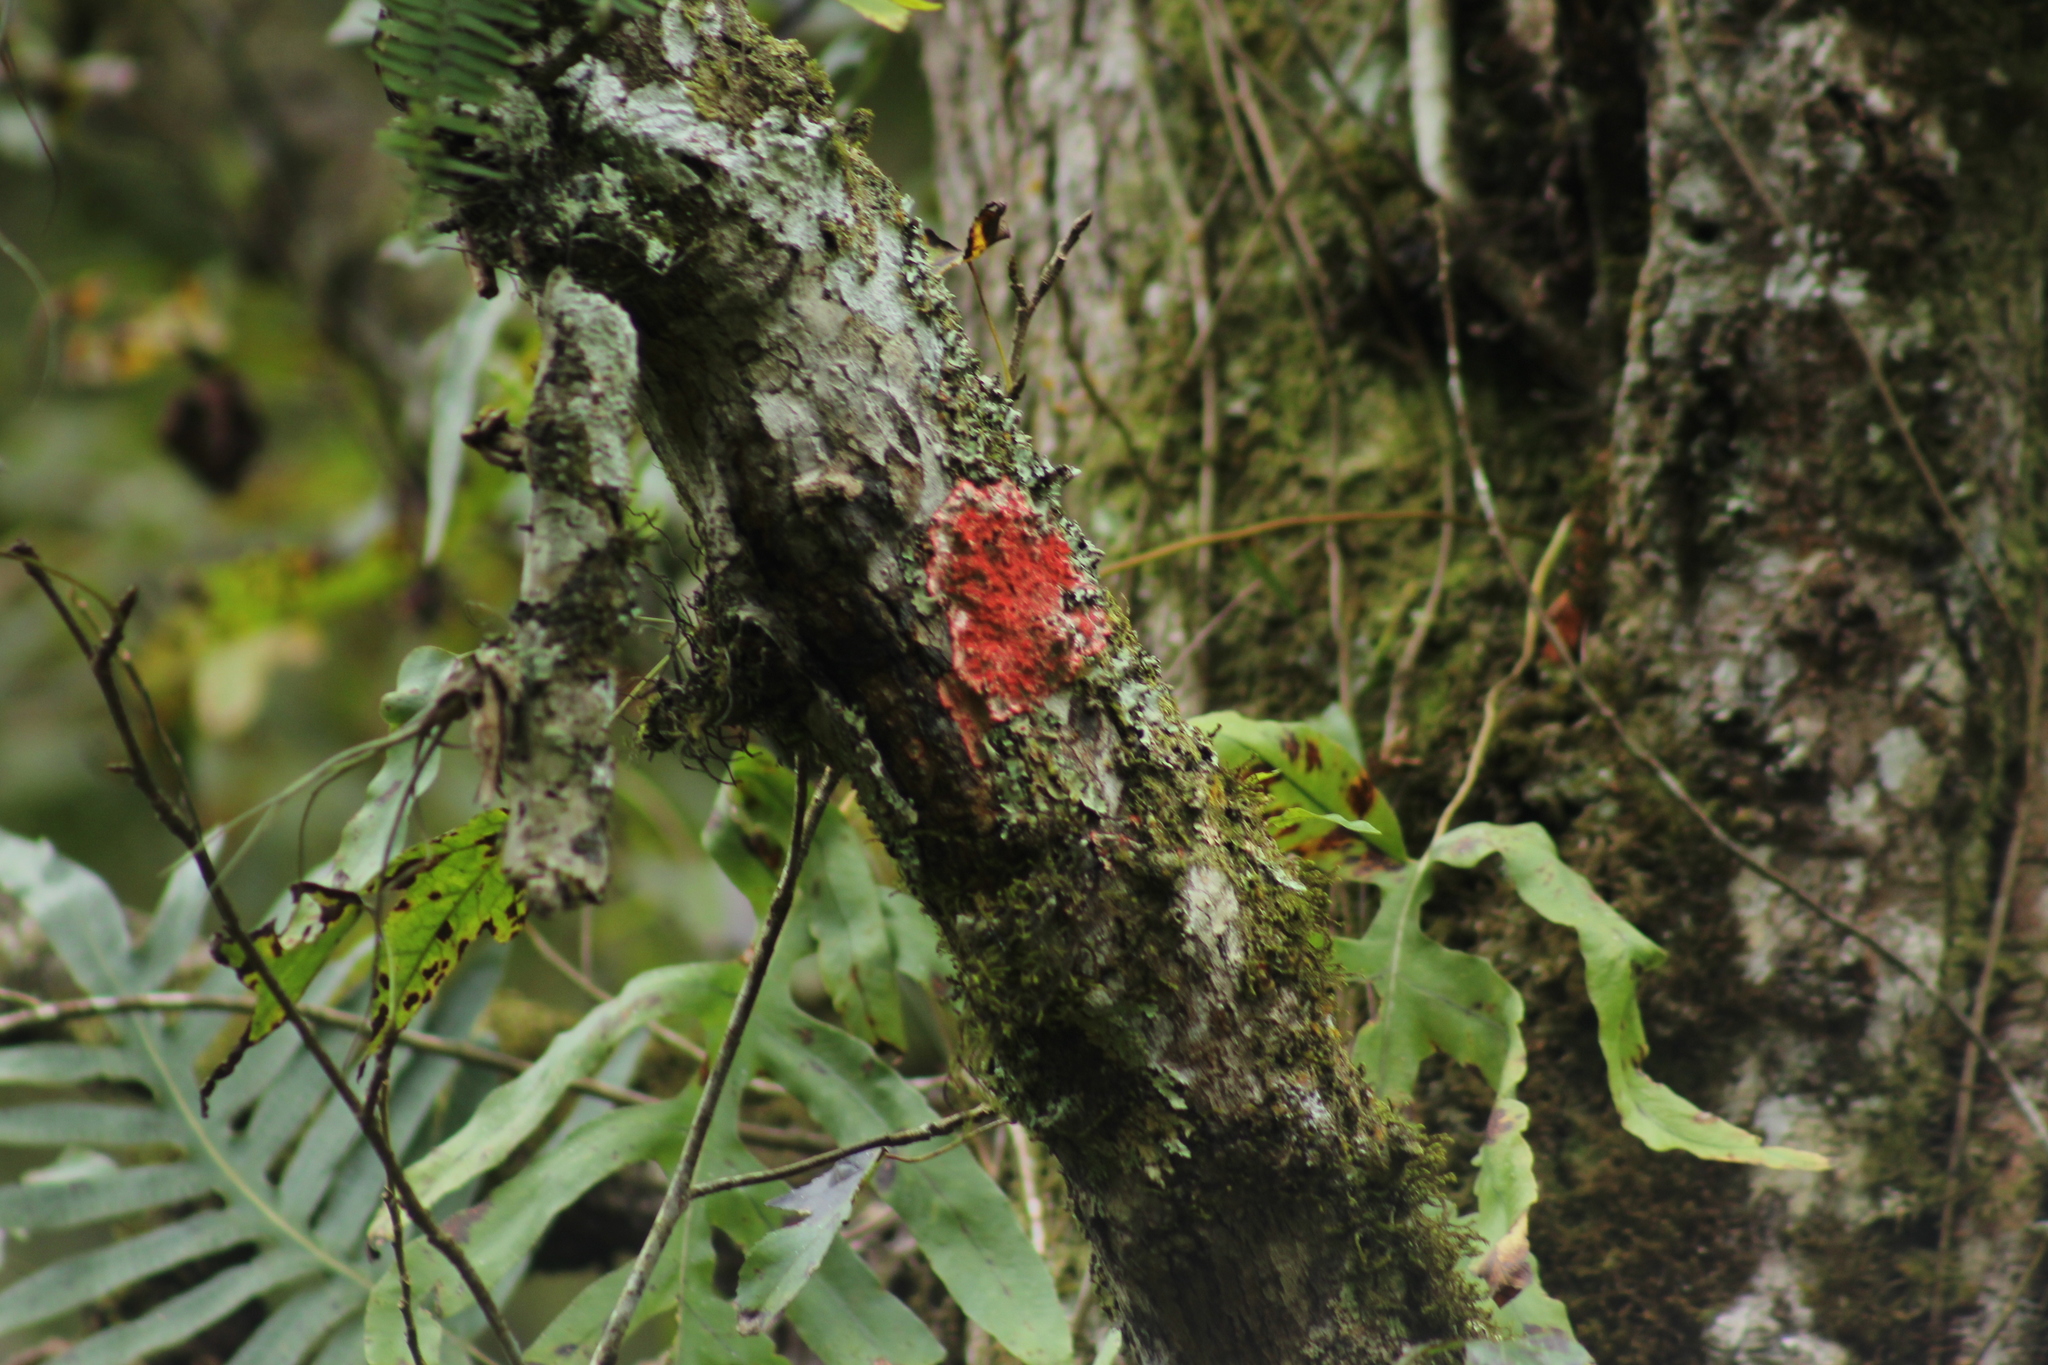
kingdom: Fungi
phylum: Ascomycota
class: Arthoniomycetes
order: Arthoniales
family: Arthoniaceae
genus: Herpothallon
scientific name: Herpothallon rubrocinctum
